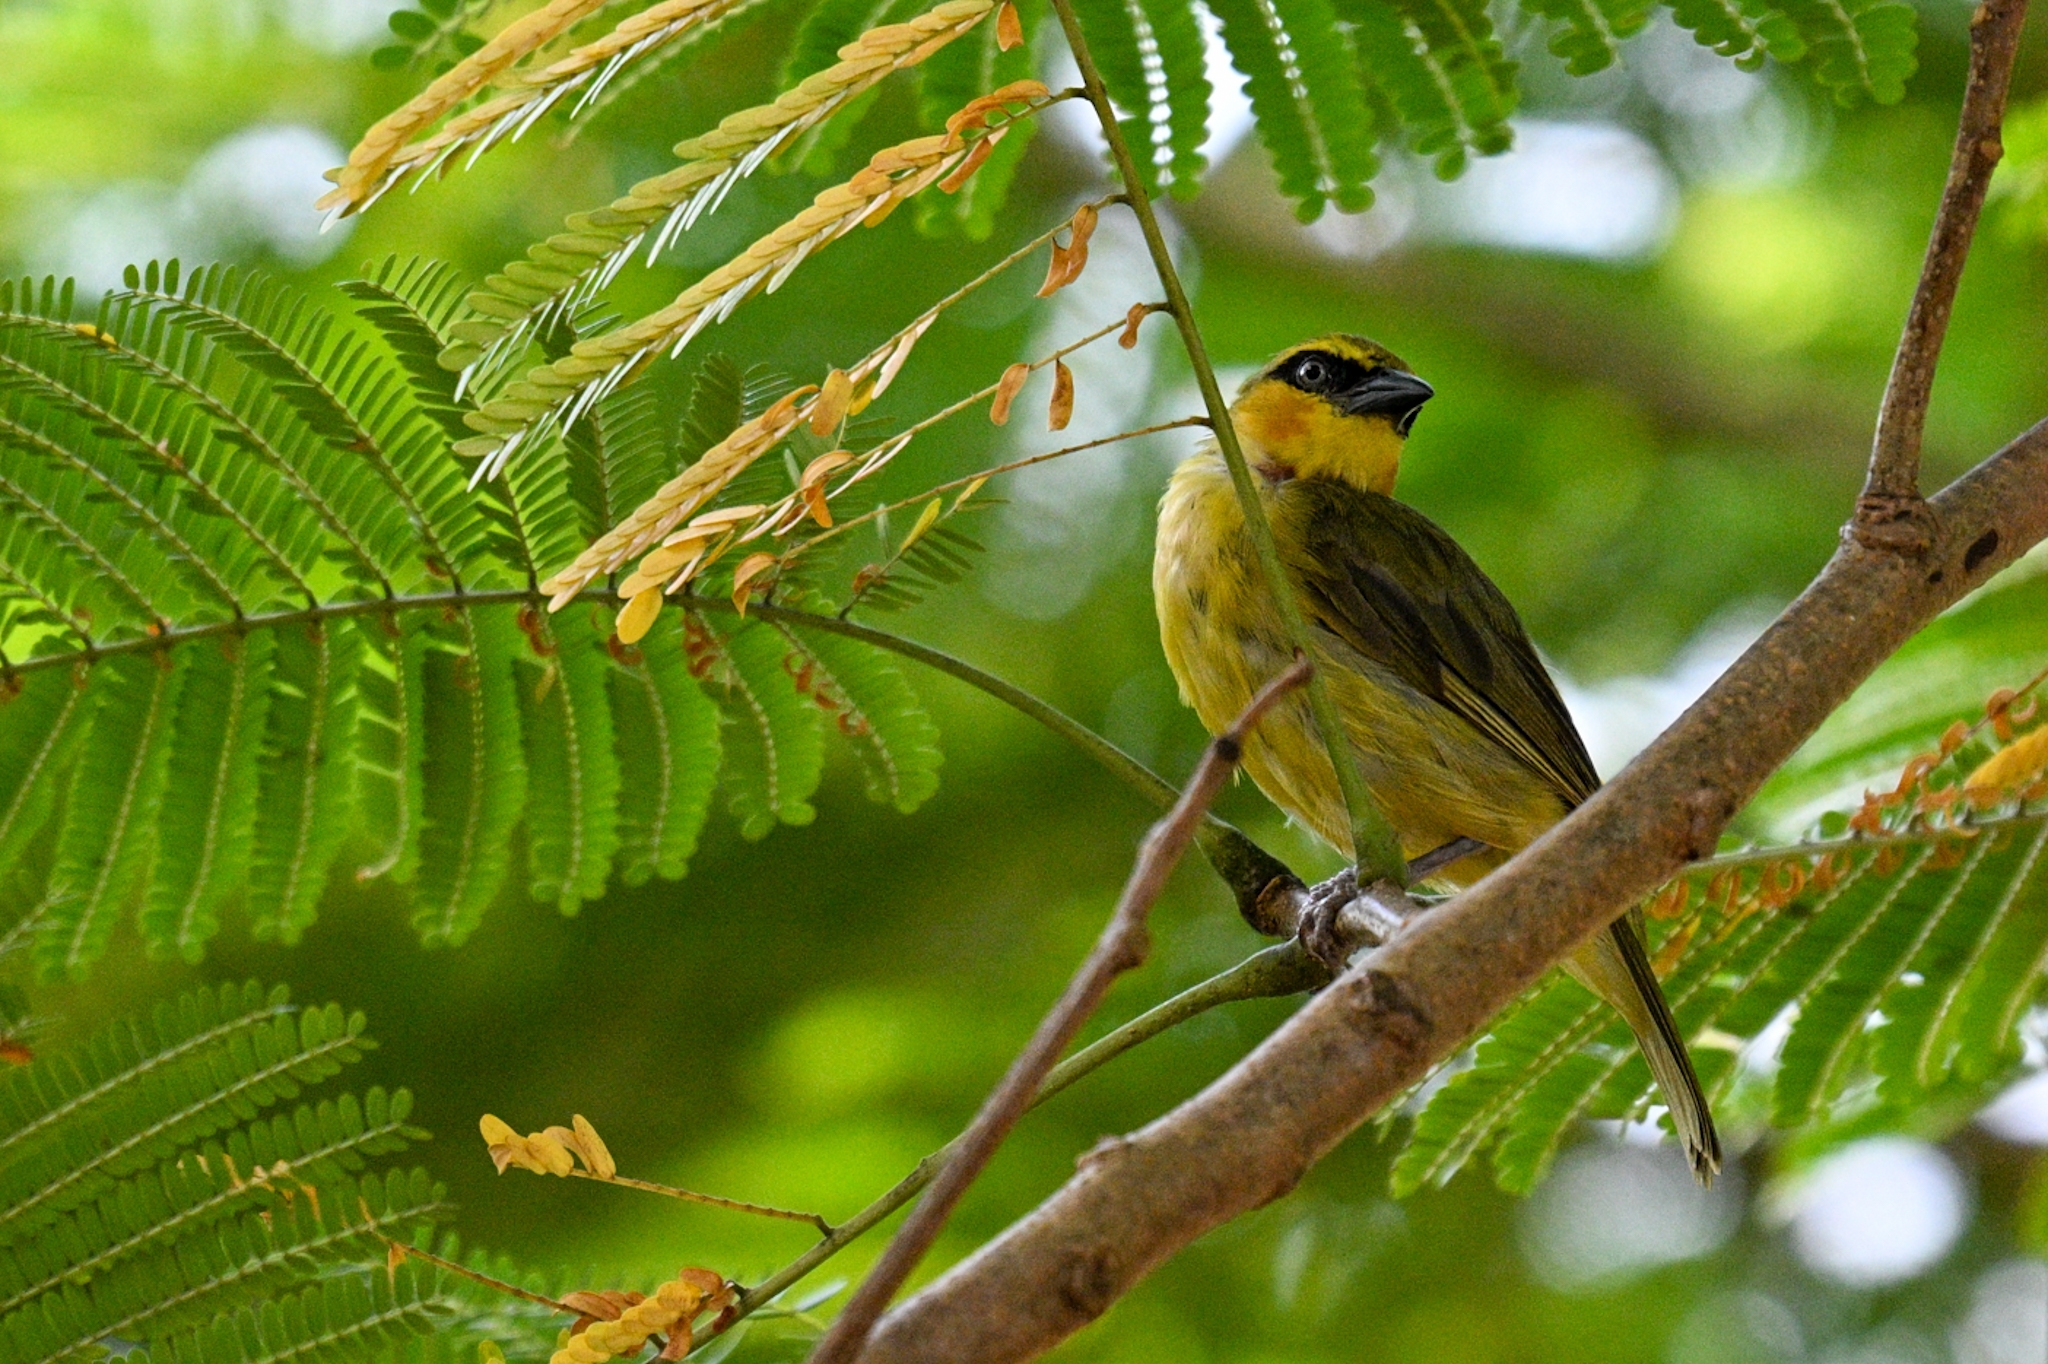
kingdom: Animalia
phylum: Chordata
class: Aves
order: Passeriformes
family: Ploceidae
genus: Ploceus
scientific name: Ploceus brachypterus
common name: Olive-naped weaver
